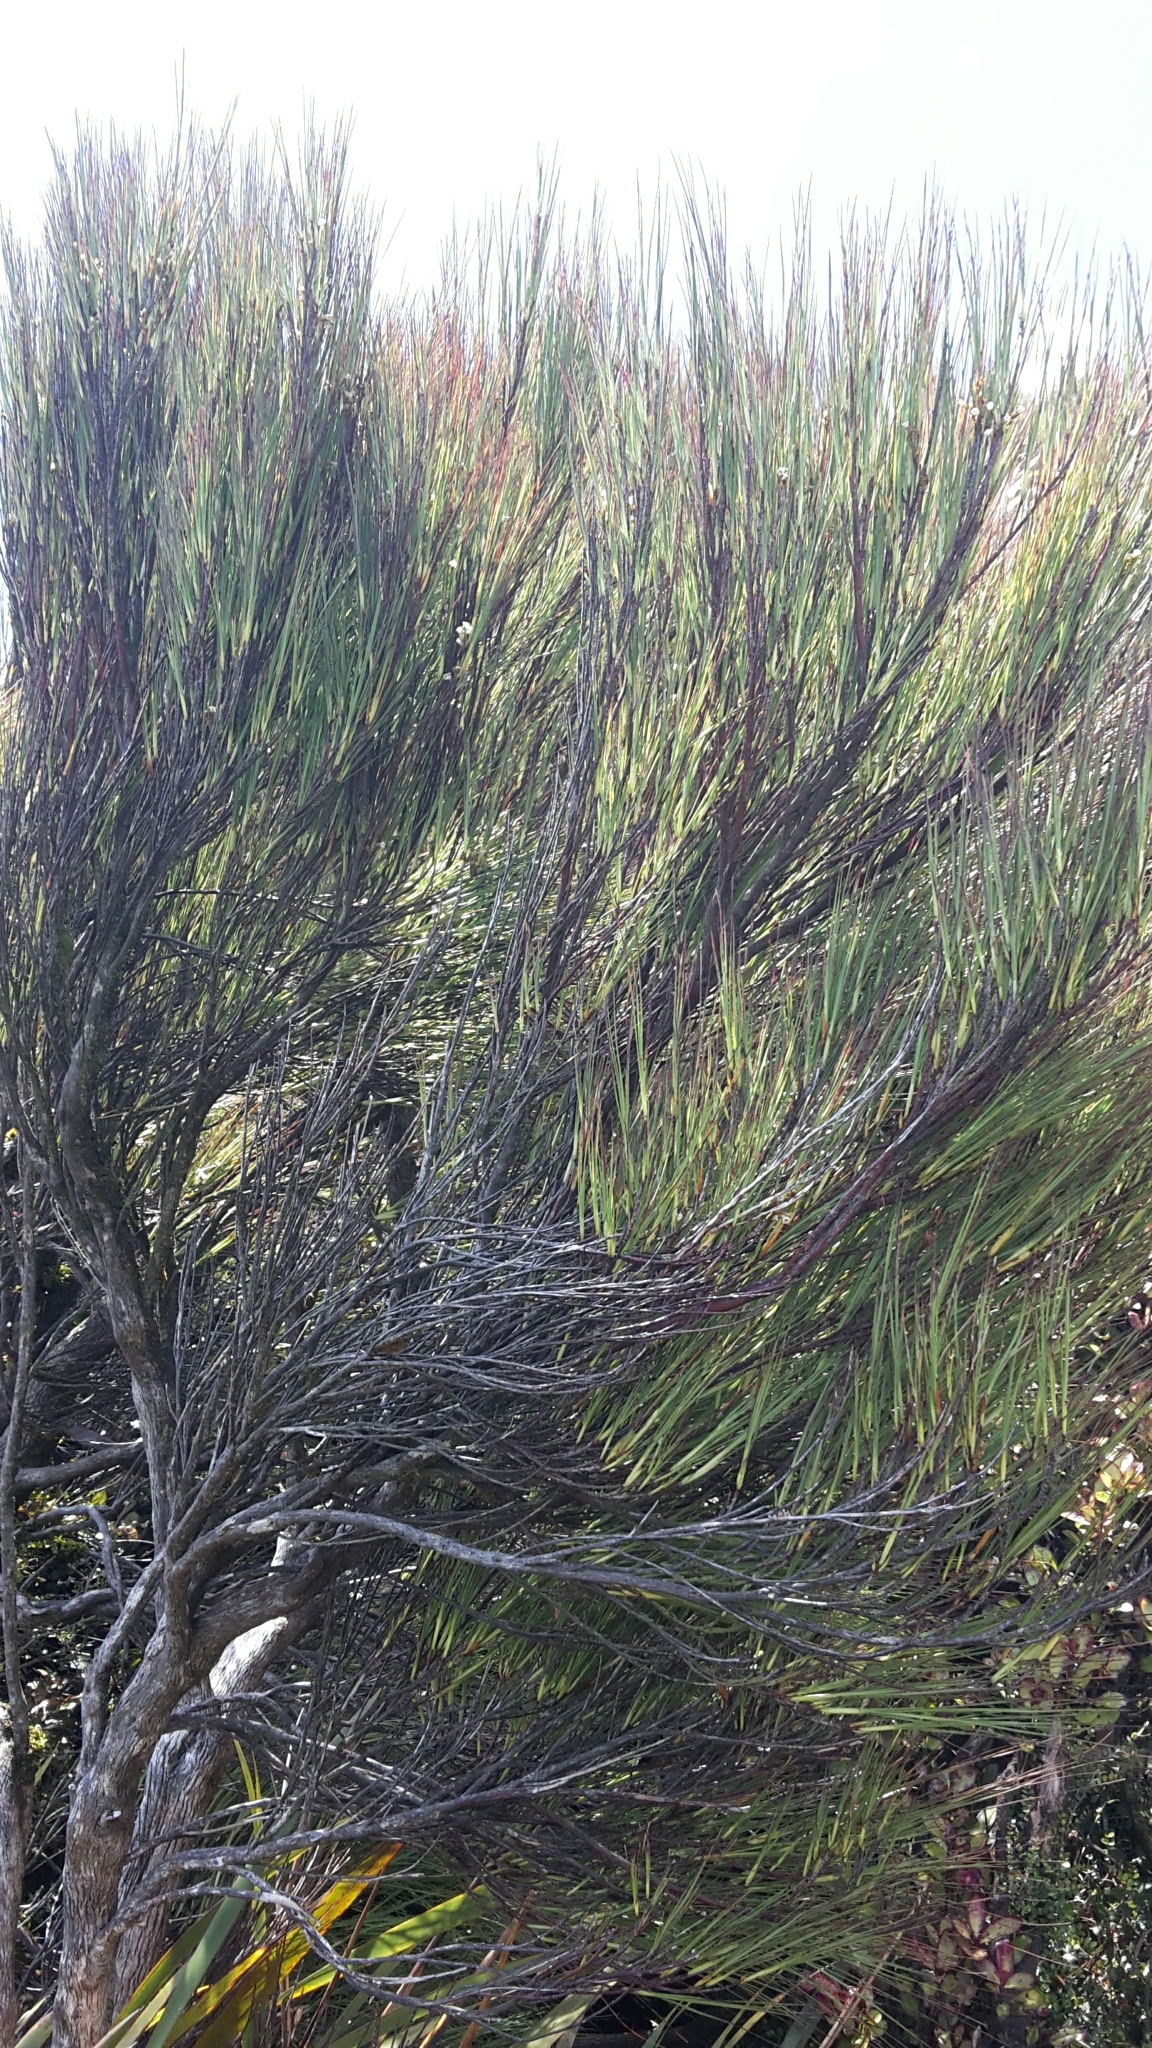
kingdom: Plantae
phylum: Tracheophyta
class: Magnoliopsida
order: Ericales
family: Ericaceae
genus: Dracophyllum
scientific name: Dracophyllum filifolium
